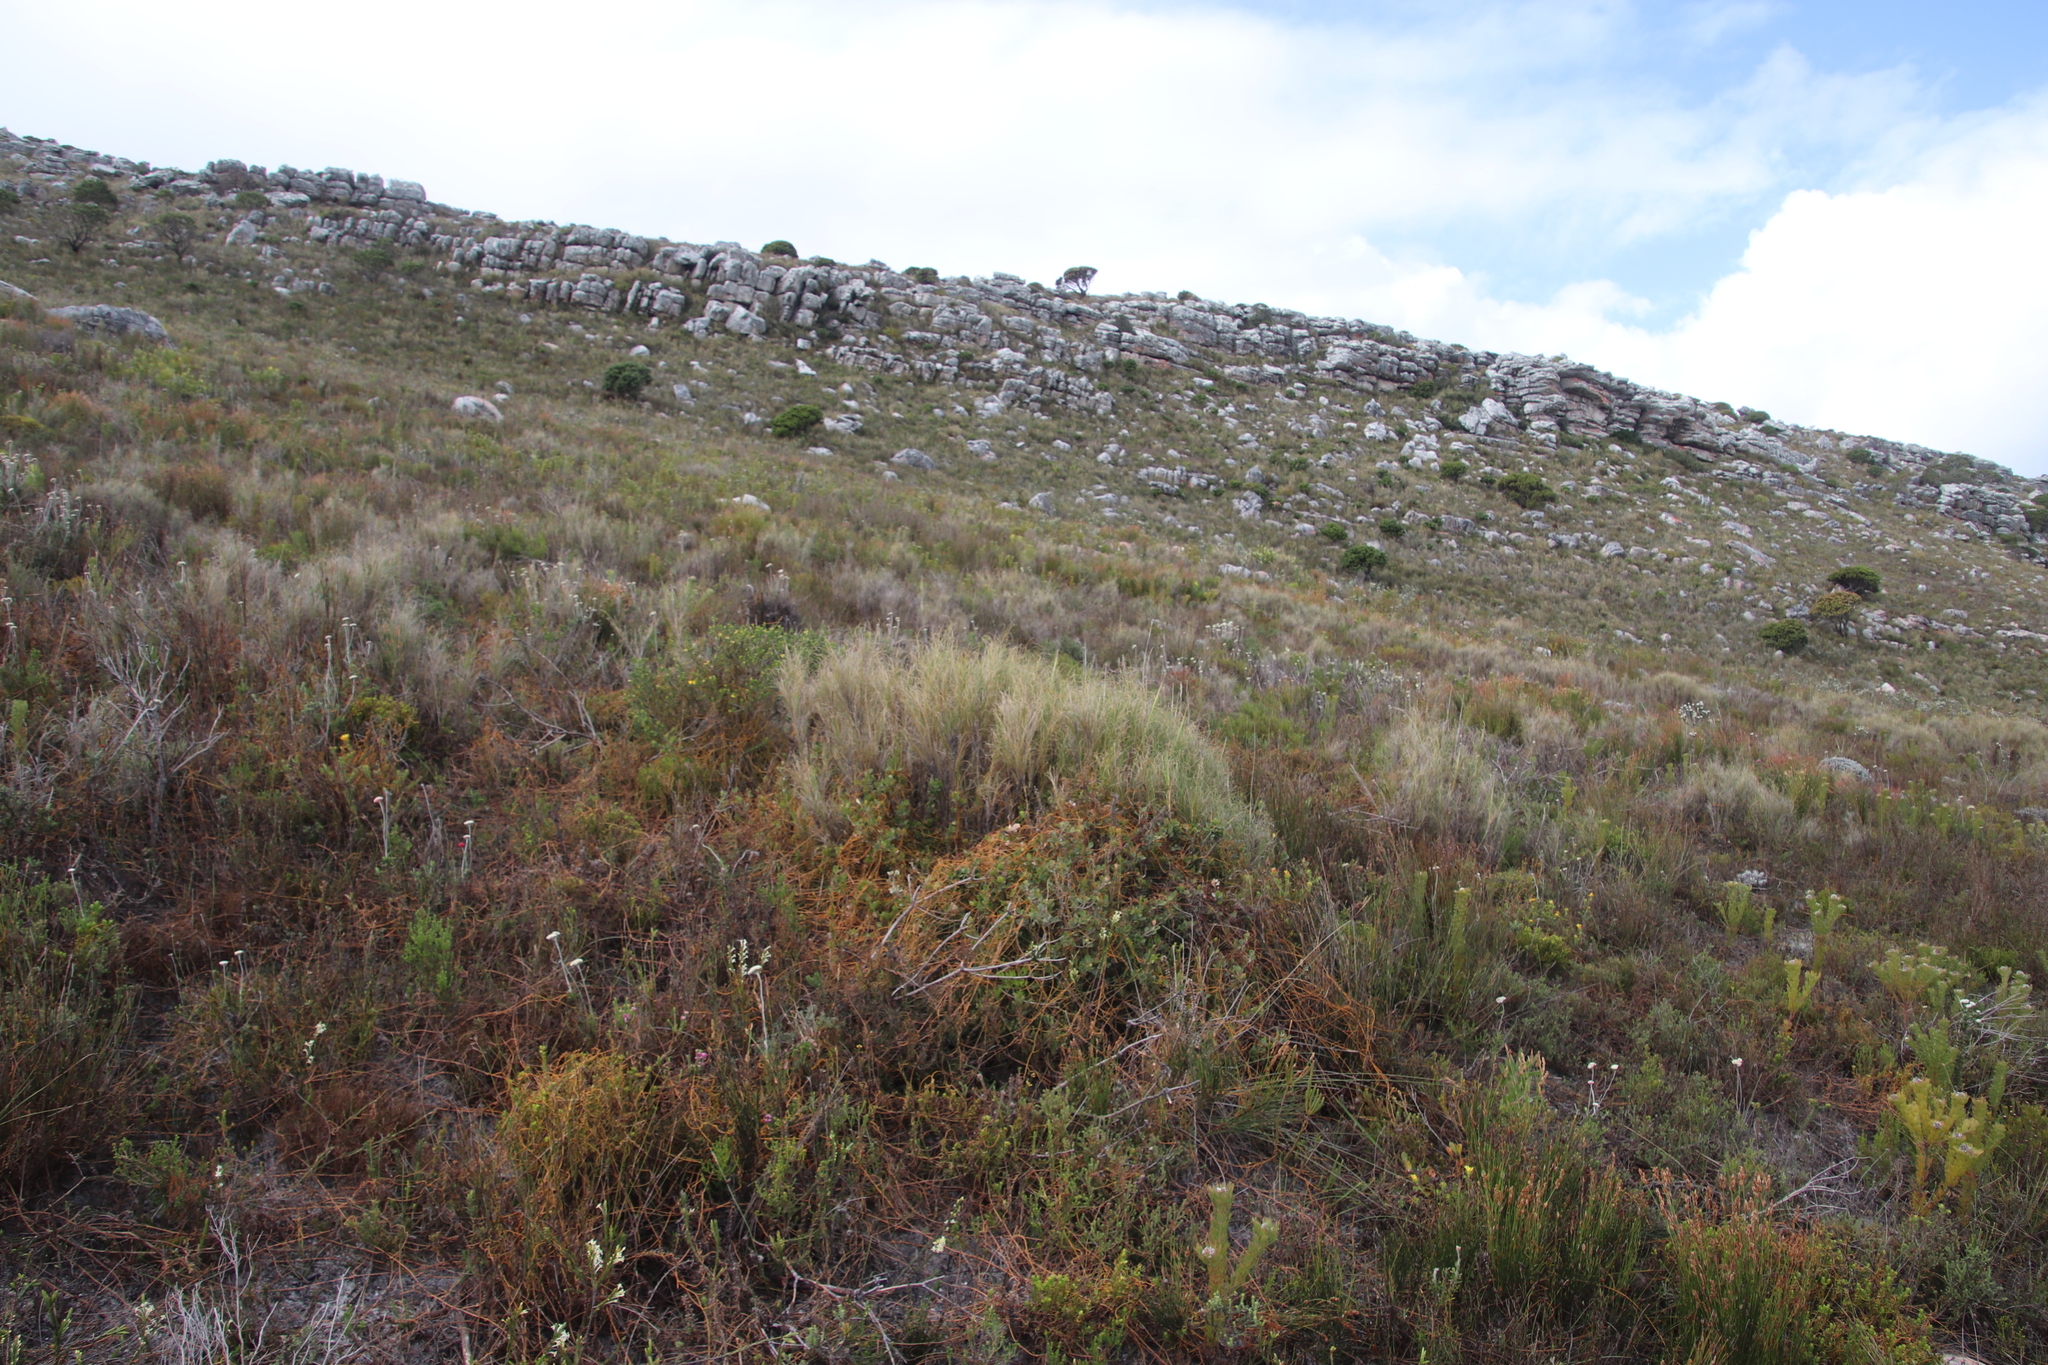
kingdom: Plantae
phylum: Tracheophyta
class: Liliopsida
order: Poales
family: Poaceae
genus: Pseudopentameris
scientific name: Pseudopentameris macrantha
